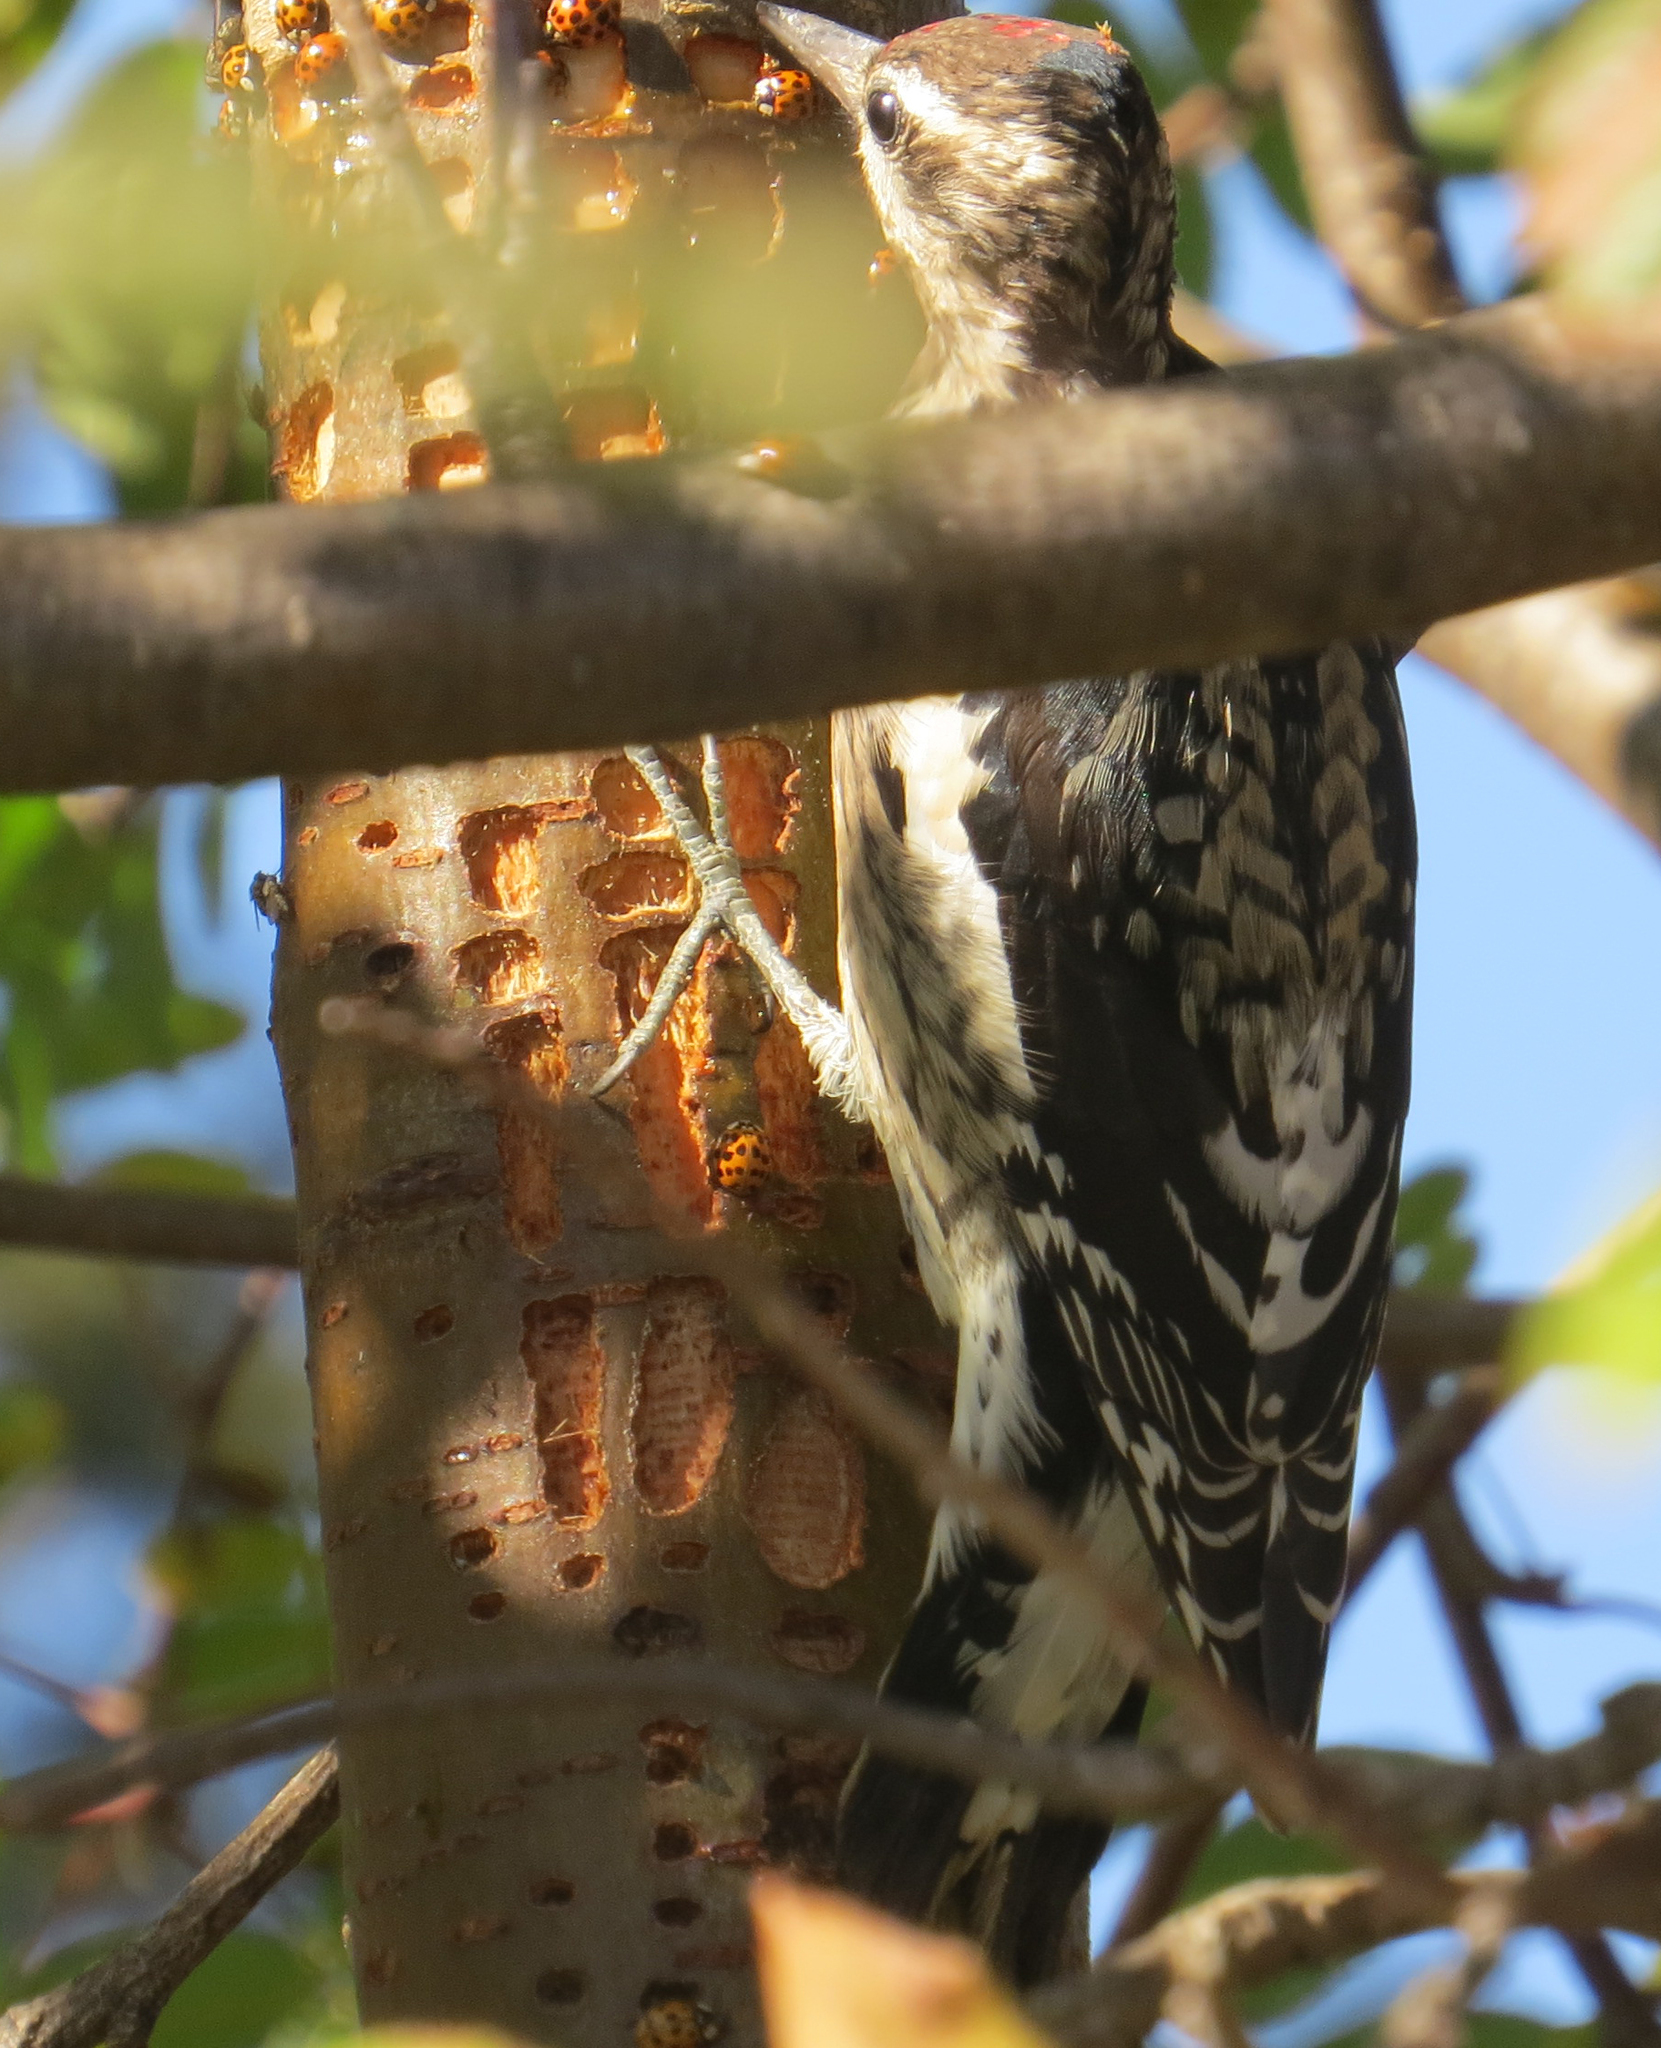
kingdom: Animalia
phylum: Chordata
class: Aves
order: Piciformes
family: Picidae
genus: Sphyrapicus
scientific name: Sphyrapicus varius
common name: Yellow-bellied sapsucker
